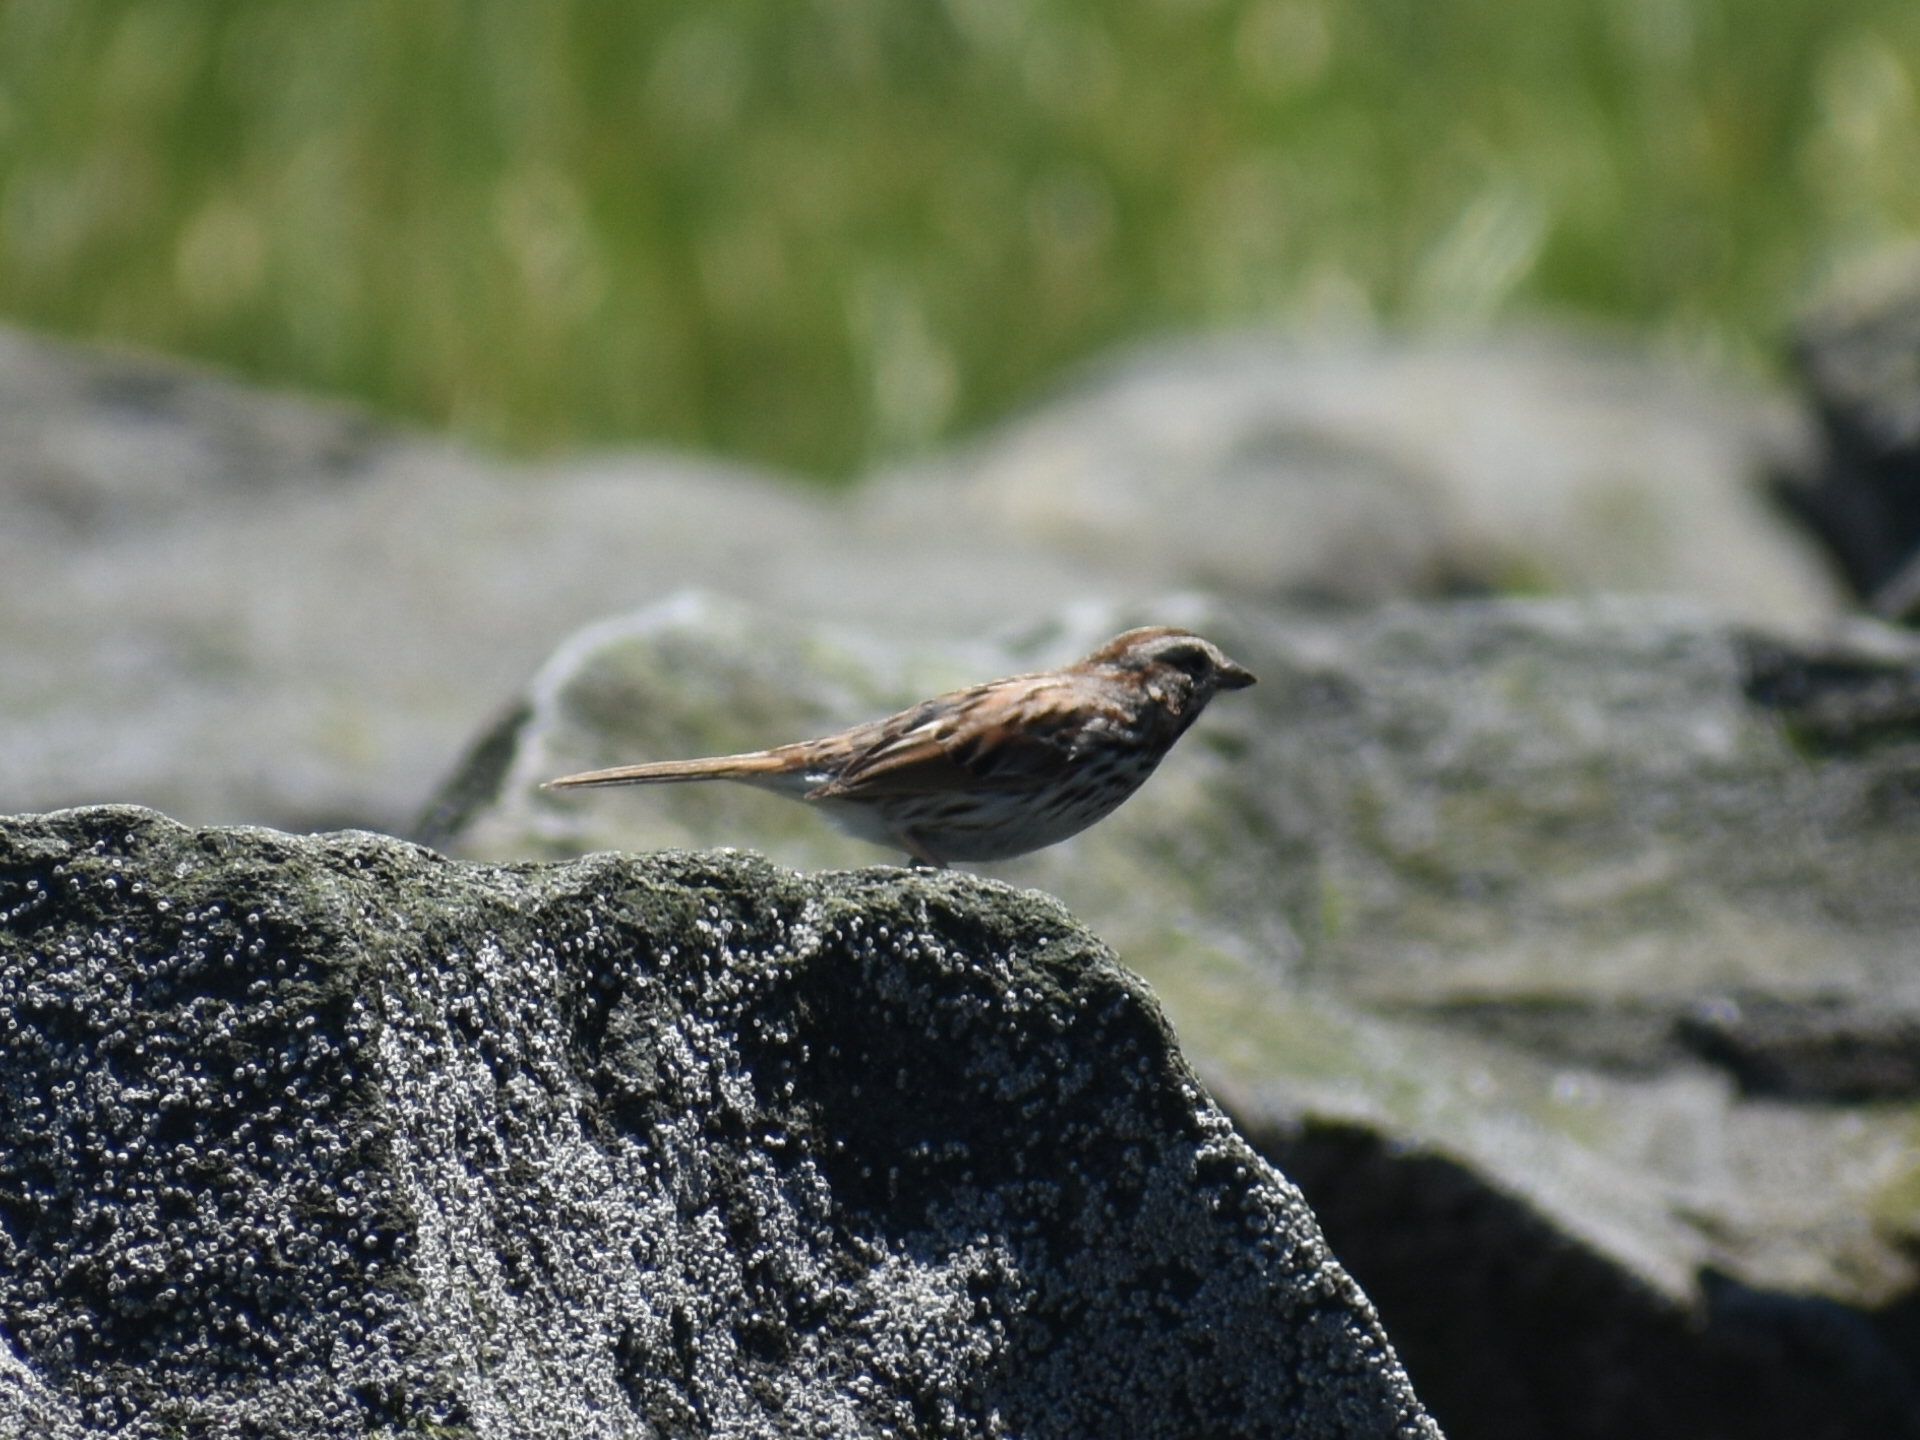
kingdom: Animalia
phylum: Chordata
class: Aves
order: Passeriformes
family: Passerellidae
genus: Melospiza
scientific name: Melospiza melodia
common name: Song sparrow
